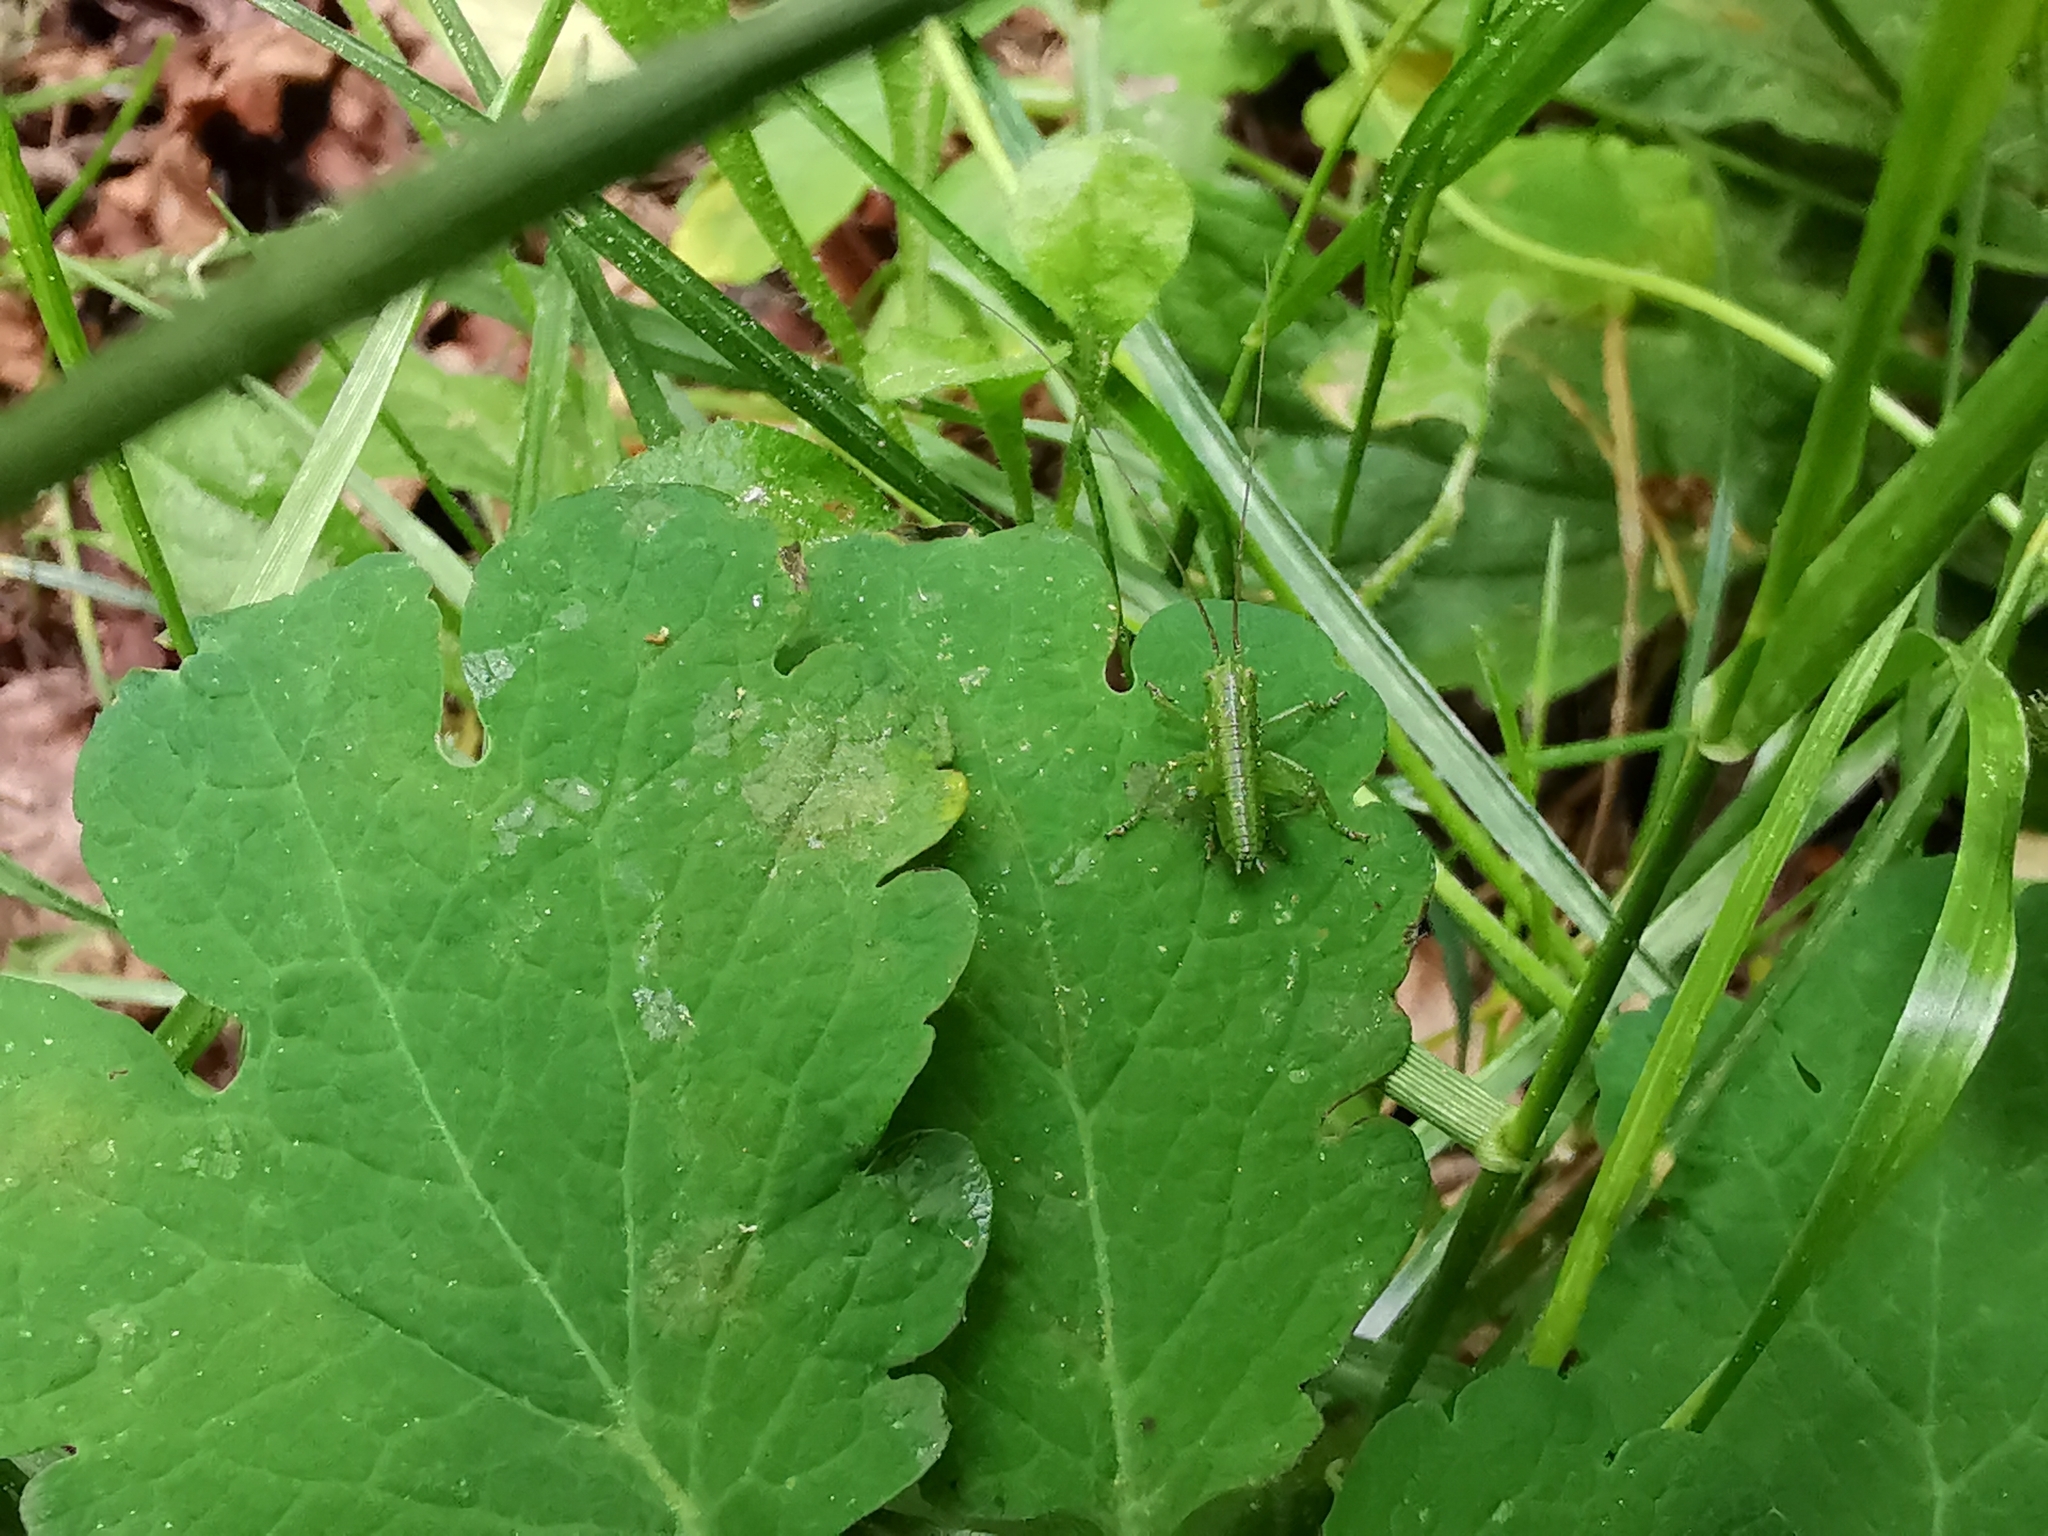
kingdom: Animalia
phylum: Arthropoda
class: Insecta
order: Orthoptera
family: Tettigoniidae
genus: Tettigonia
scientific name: Tettigonia
